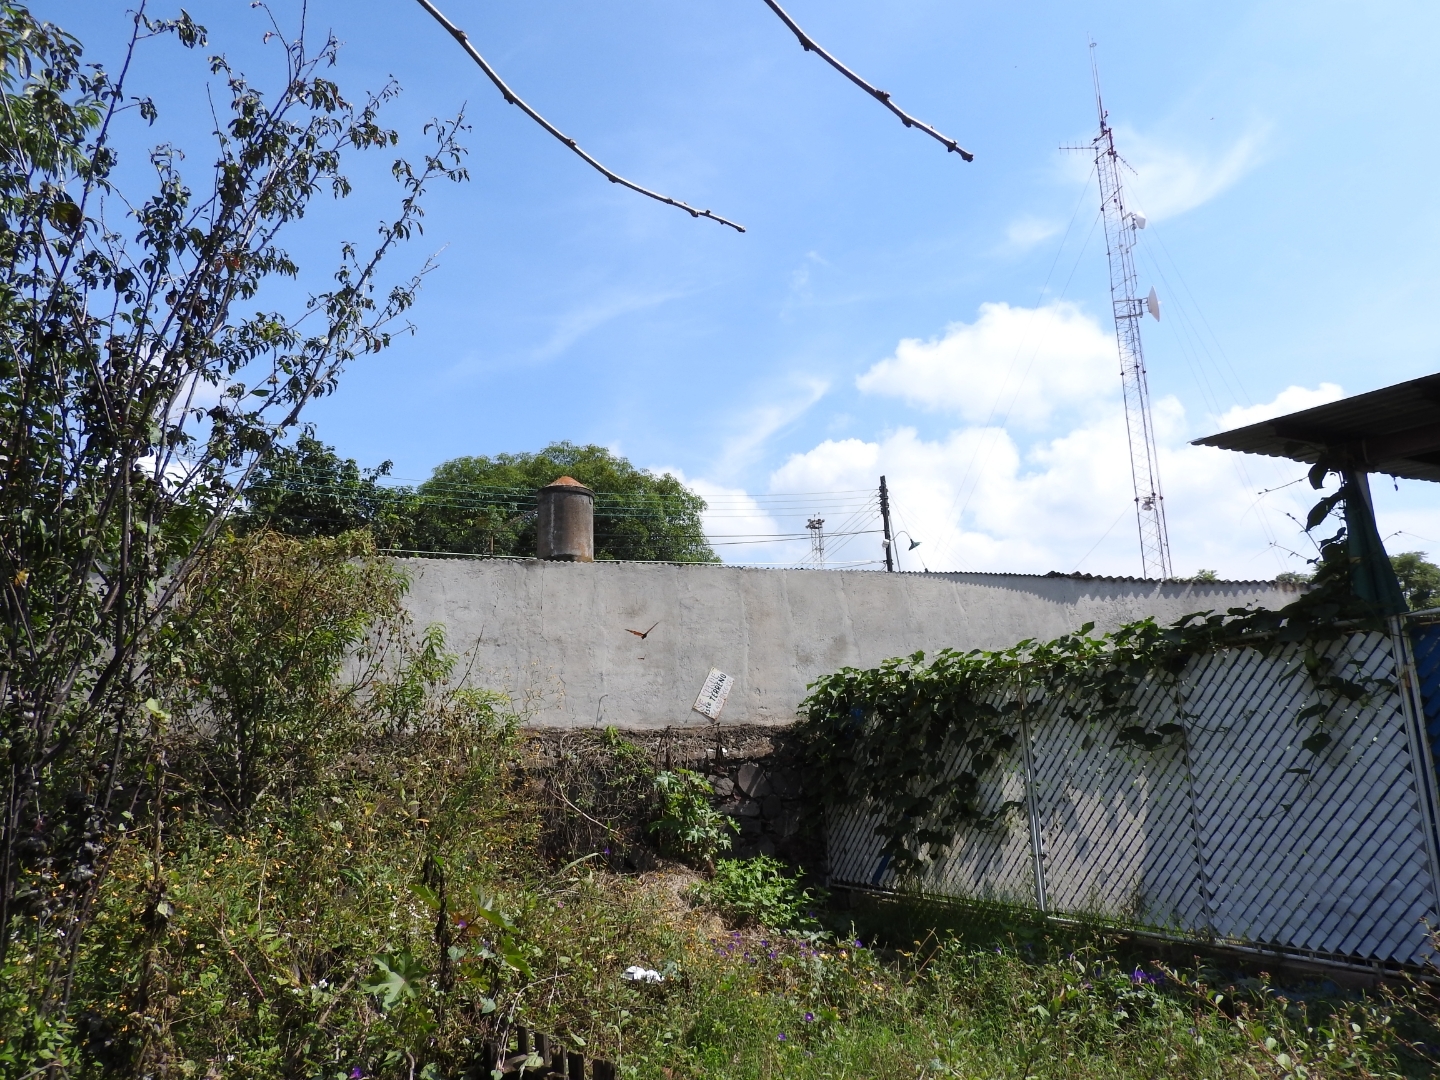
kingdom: Animalia
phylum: Arthropoda
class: Insecta
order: Lepidoptera
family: Nymphalidae
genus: Danaus
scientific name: Danaus plexippus
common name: Monarch
